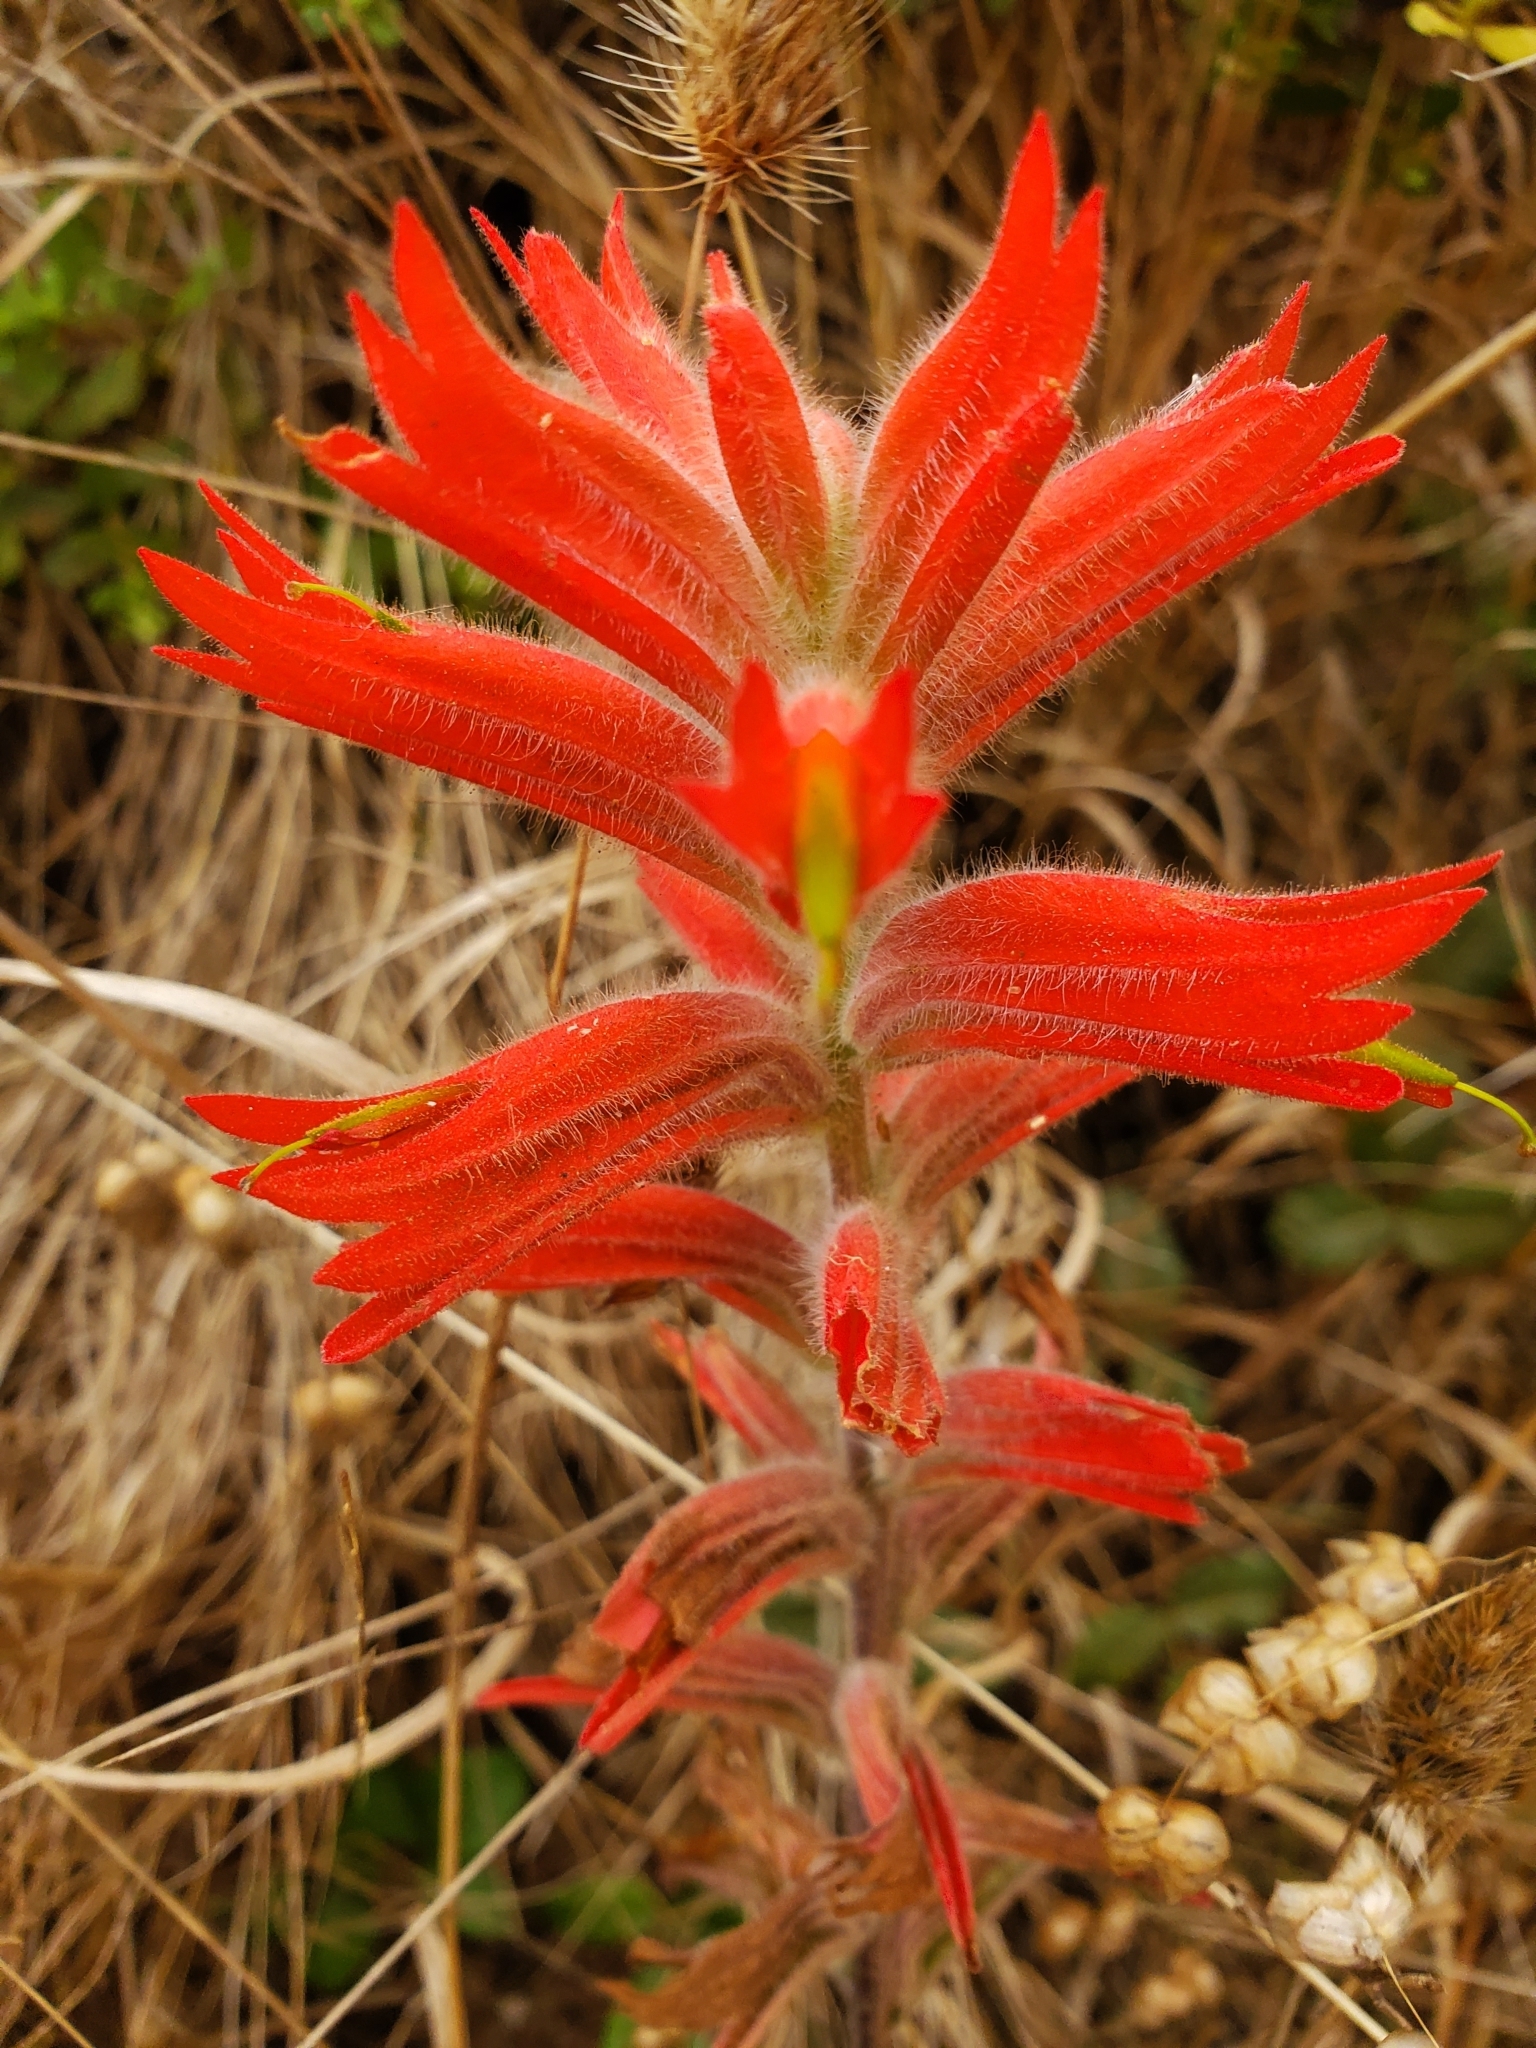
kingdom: Plantae
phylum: Tracheophyta
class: Magnoliopsida
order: Lamiales
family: Orobanchaceae
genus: Castilleja
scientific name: Castilleja subinclusa
